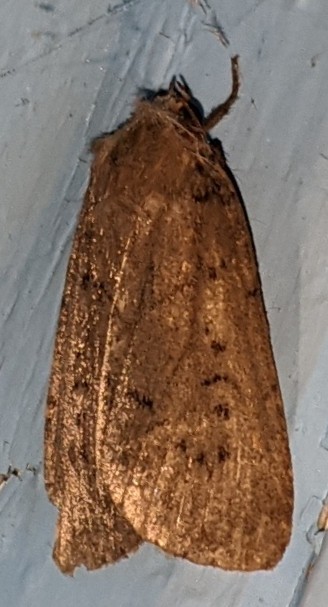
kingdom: Animalia
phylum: Arthropoda
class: Insecta
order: Lepidoptera
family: Noctuidae
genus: Graphiphora
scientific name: Graphiphora augur
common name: Double dart
